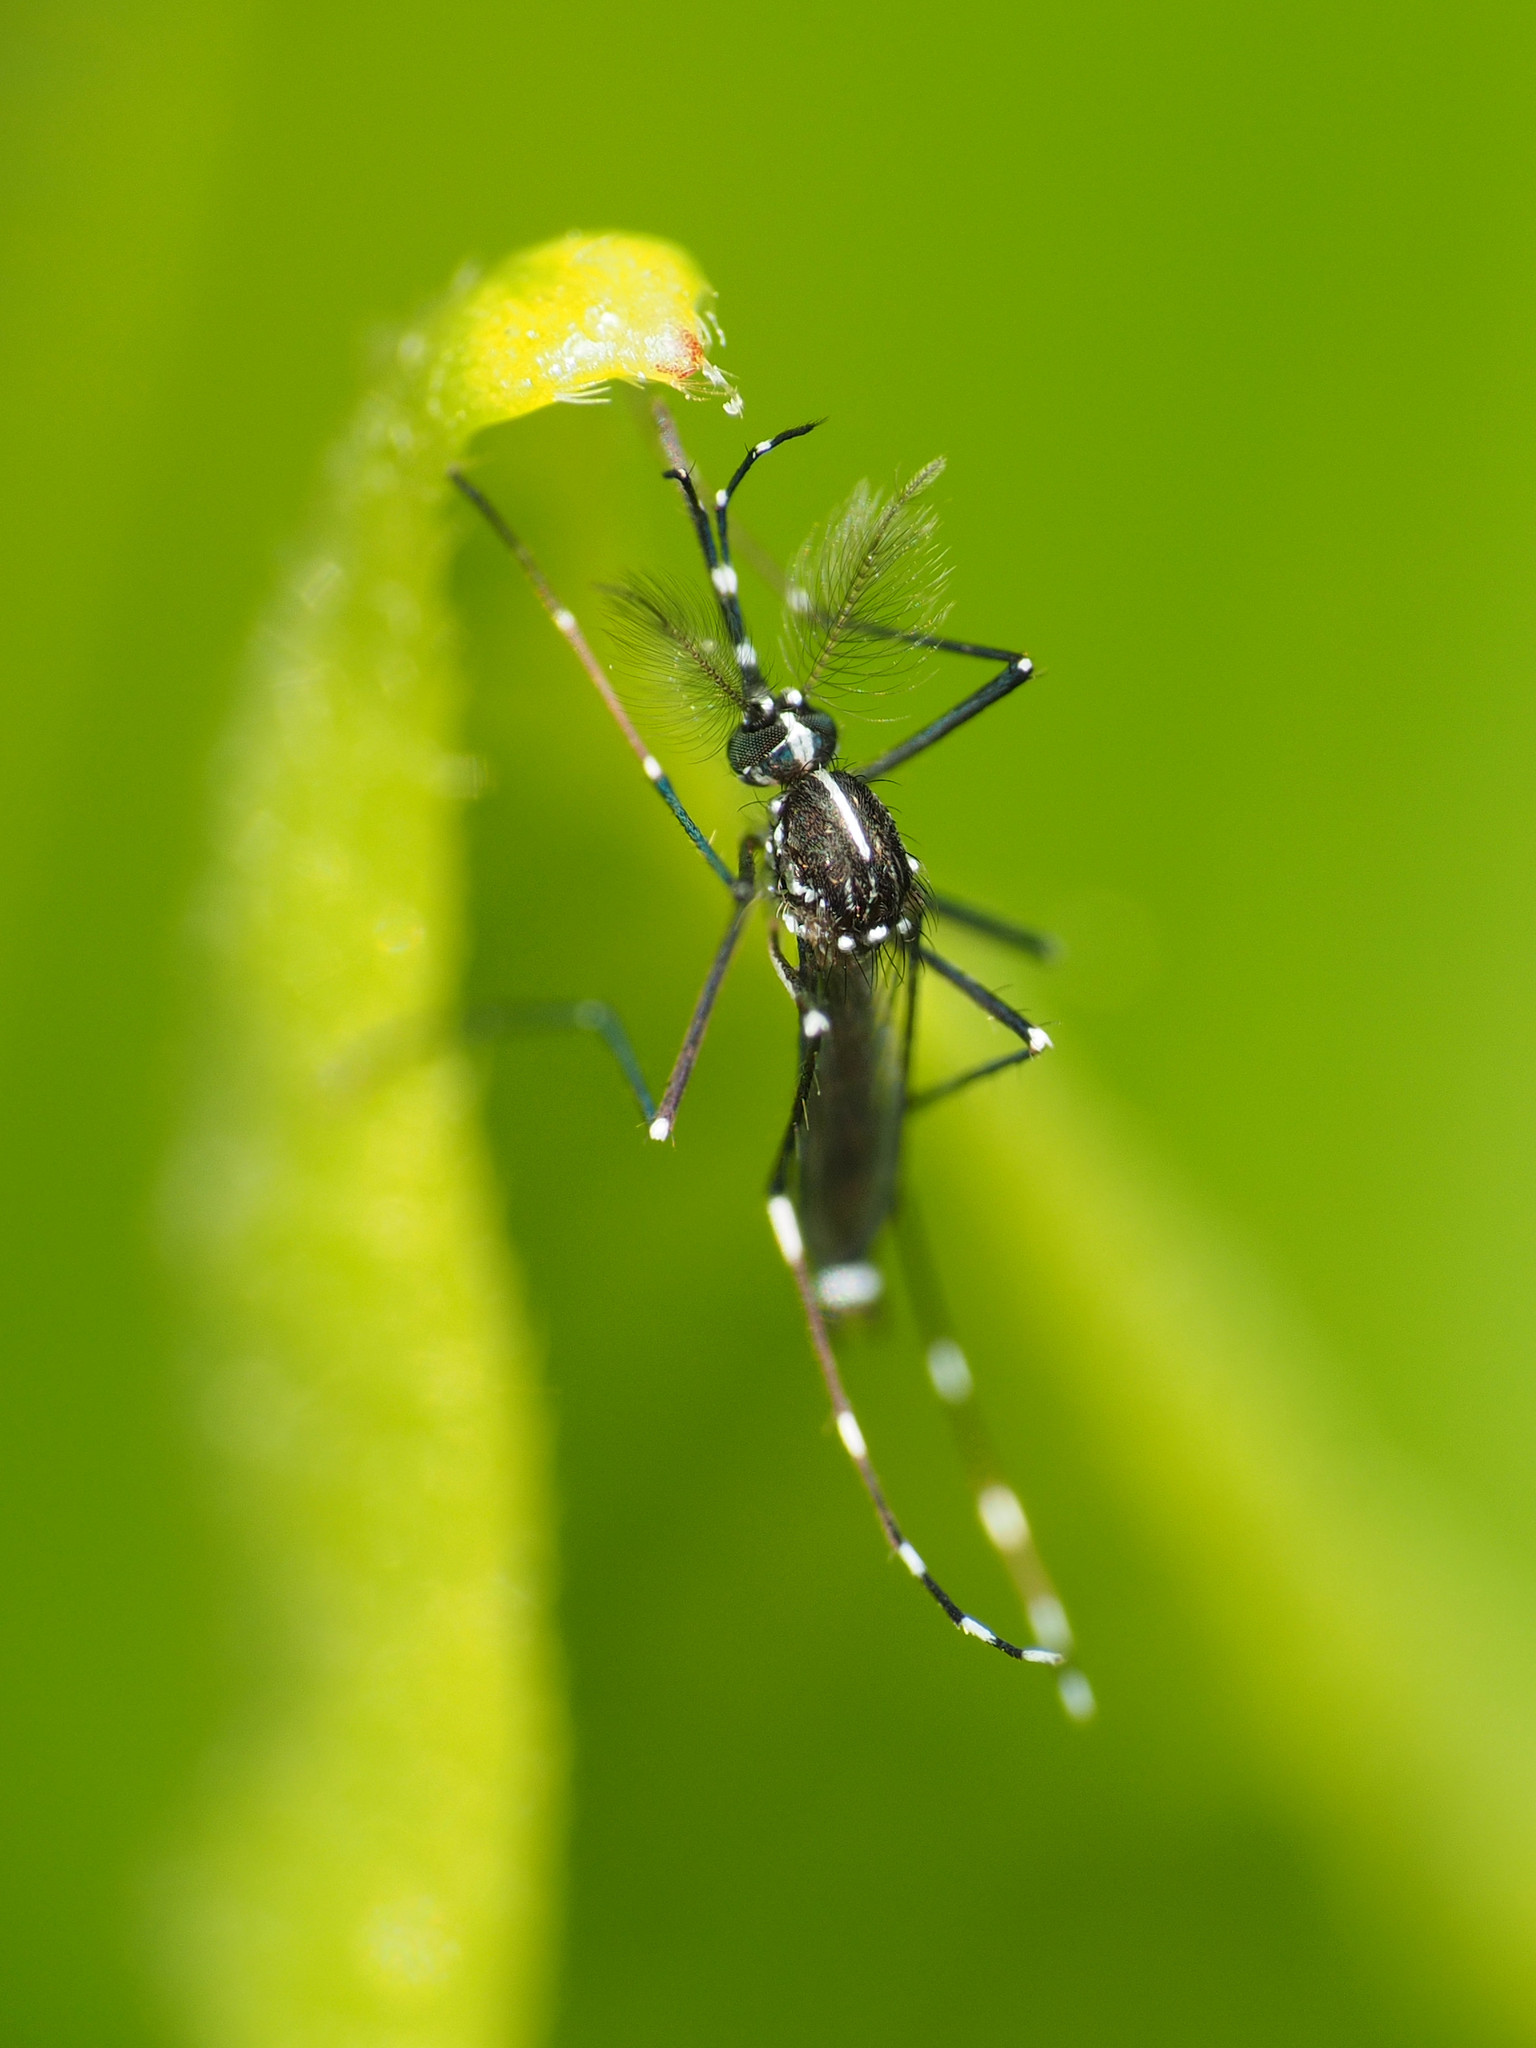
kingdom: Animalia
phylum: Arthropoda
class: Insecta
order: Diptera
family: Culicidae
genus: Aedes
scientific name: Aedes albopictus
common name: Tiger mosquito
